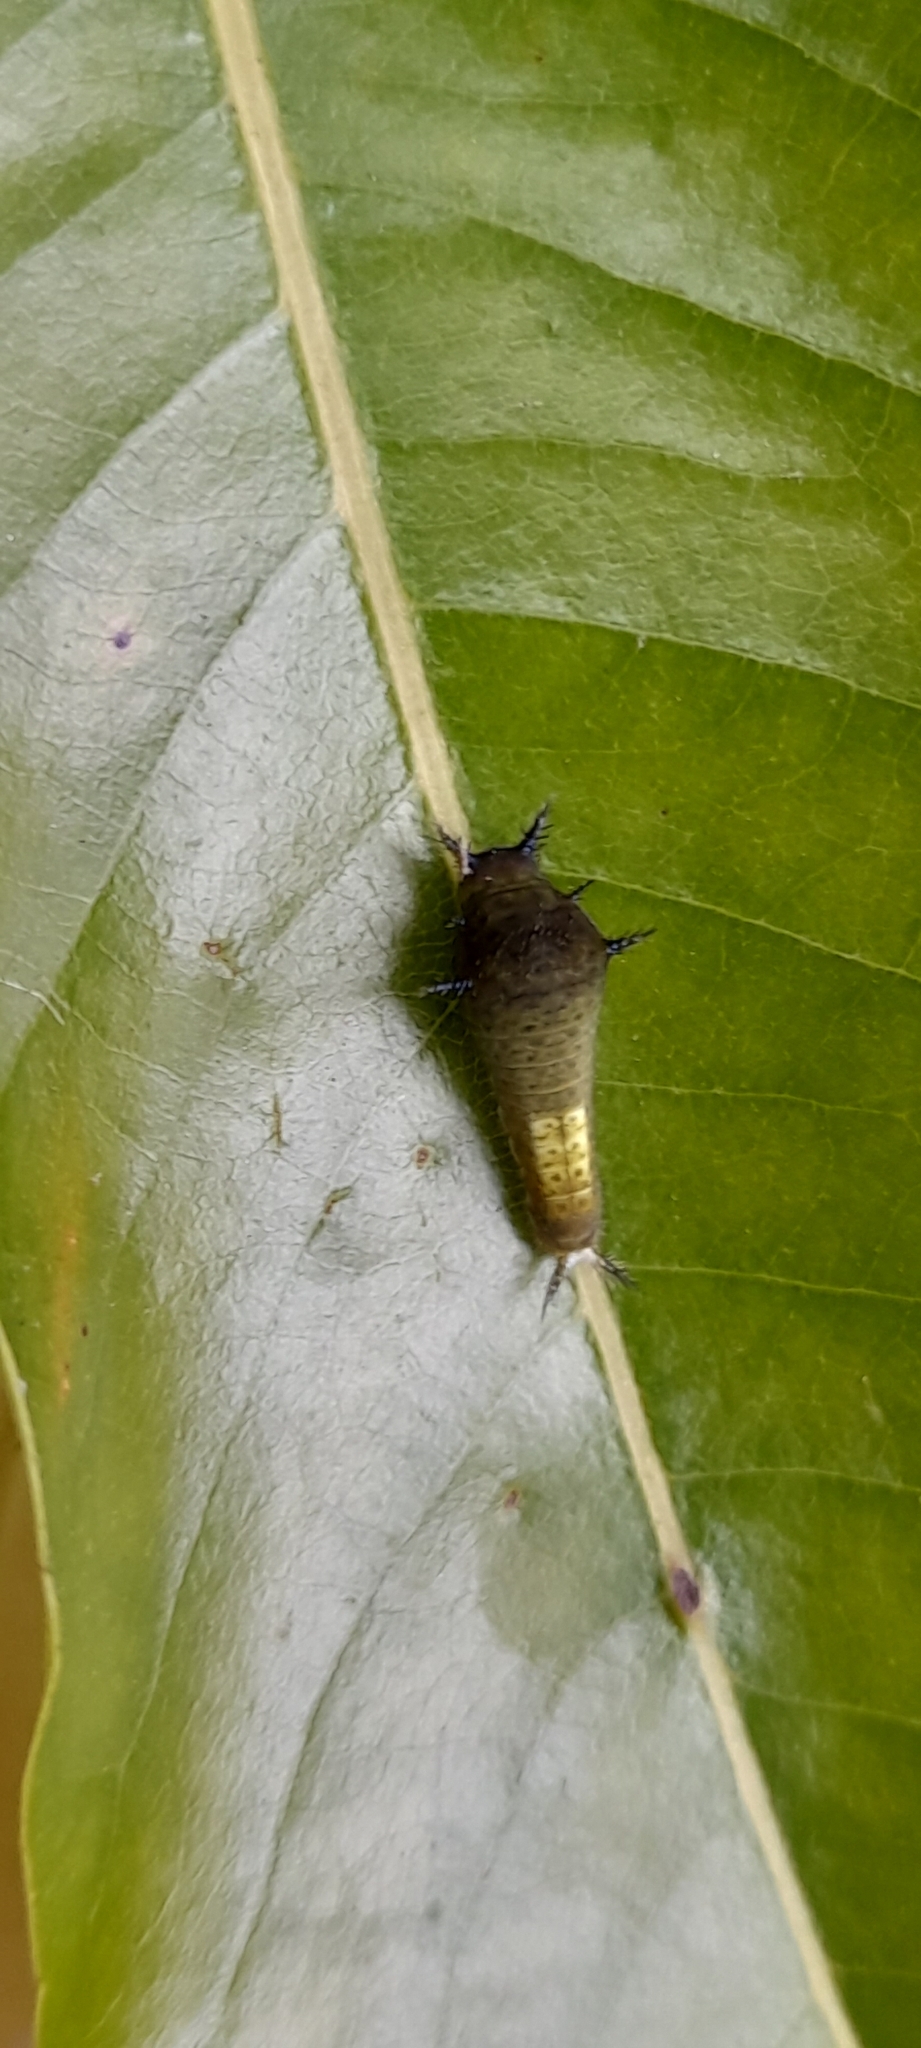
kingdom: Animalia
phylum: Arthropoda
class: Insecta
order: Lepidoptera
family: Papilionidae
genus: Graphium
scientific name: Graphium agamemnon
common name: Tailed jay
